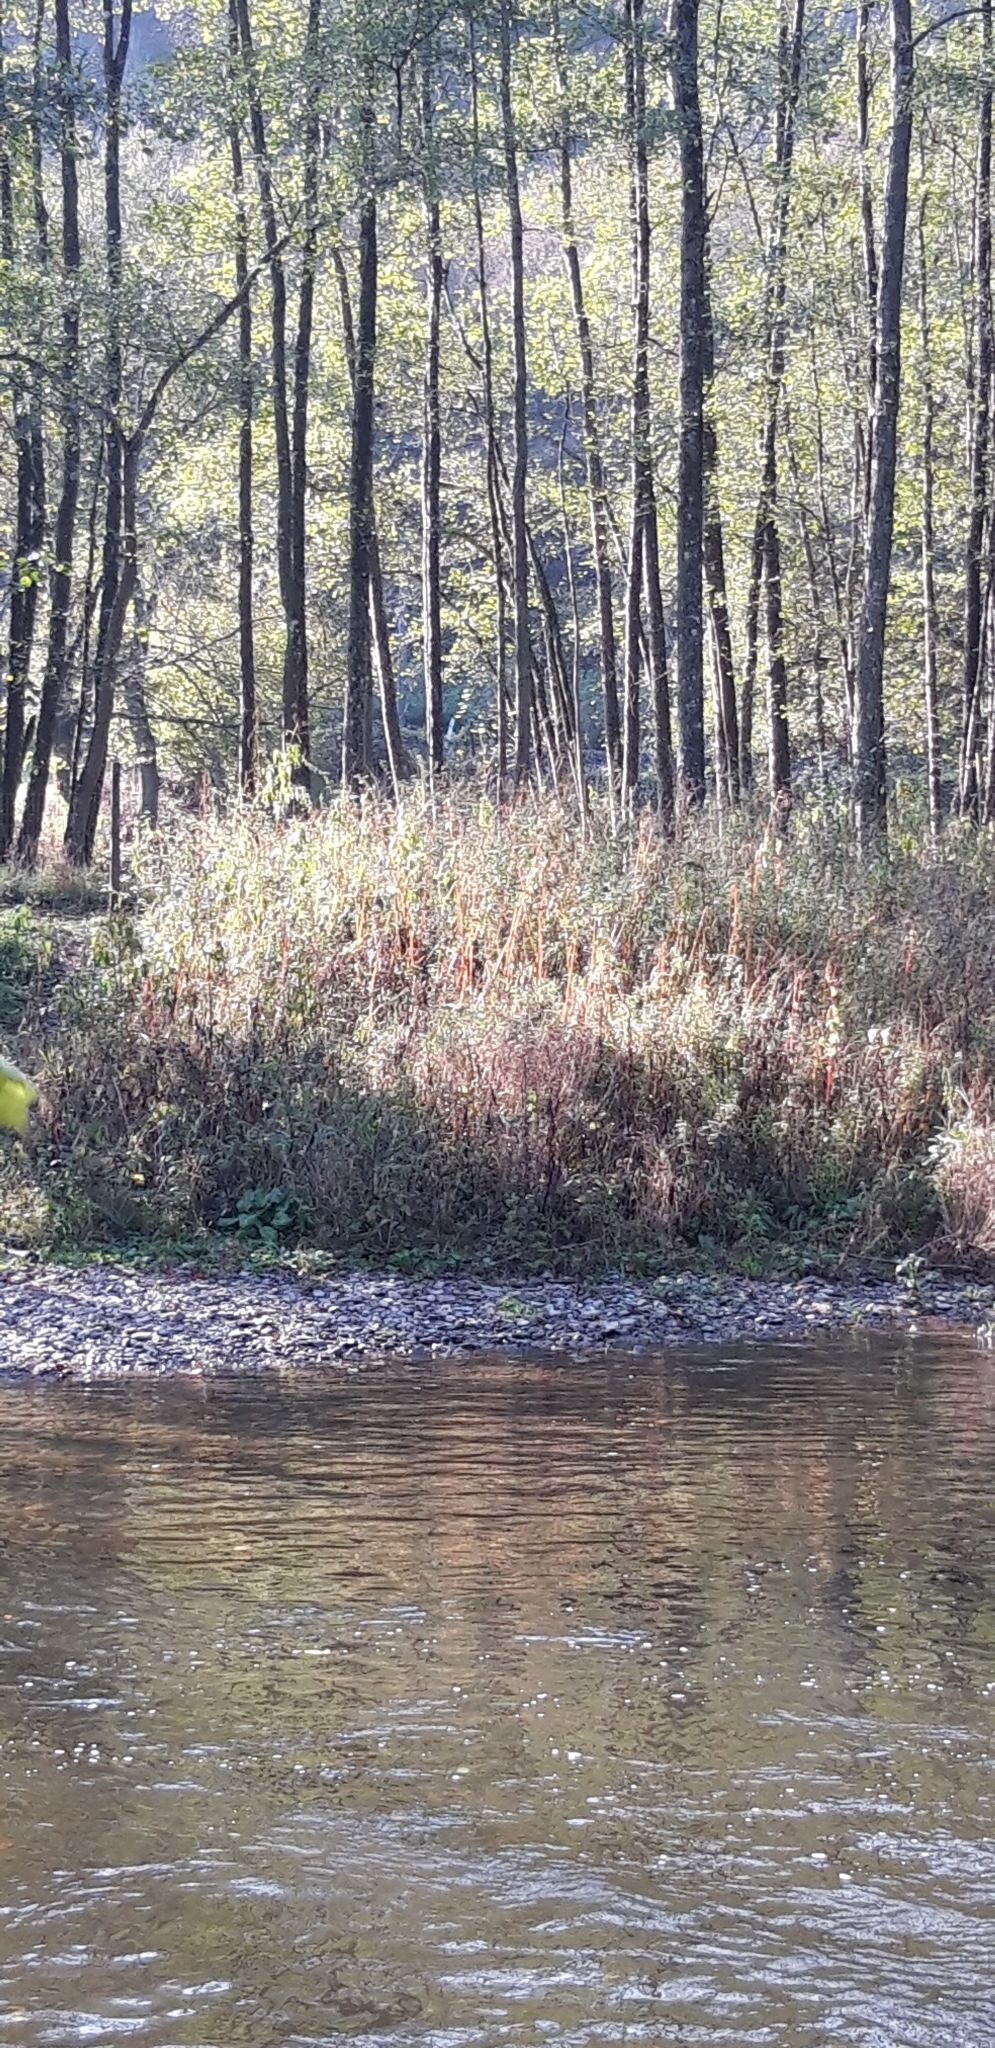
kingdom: Plantae
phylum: Tracheophyta
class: Magnoliopsida
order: Ericales
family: Balsaminaceae
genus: Impatiens
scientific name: Impatiens glandulifera
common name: Himalayan balsam
